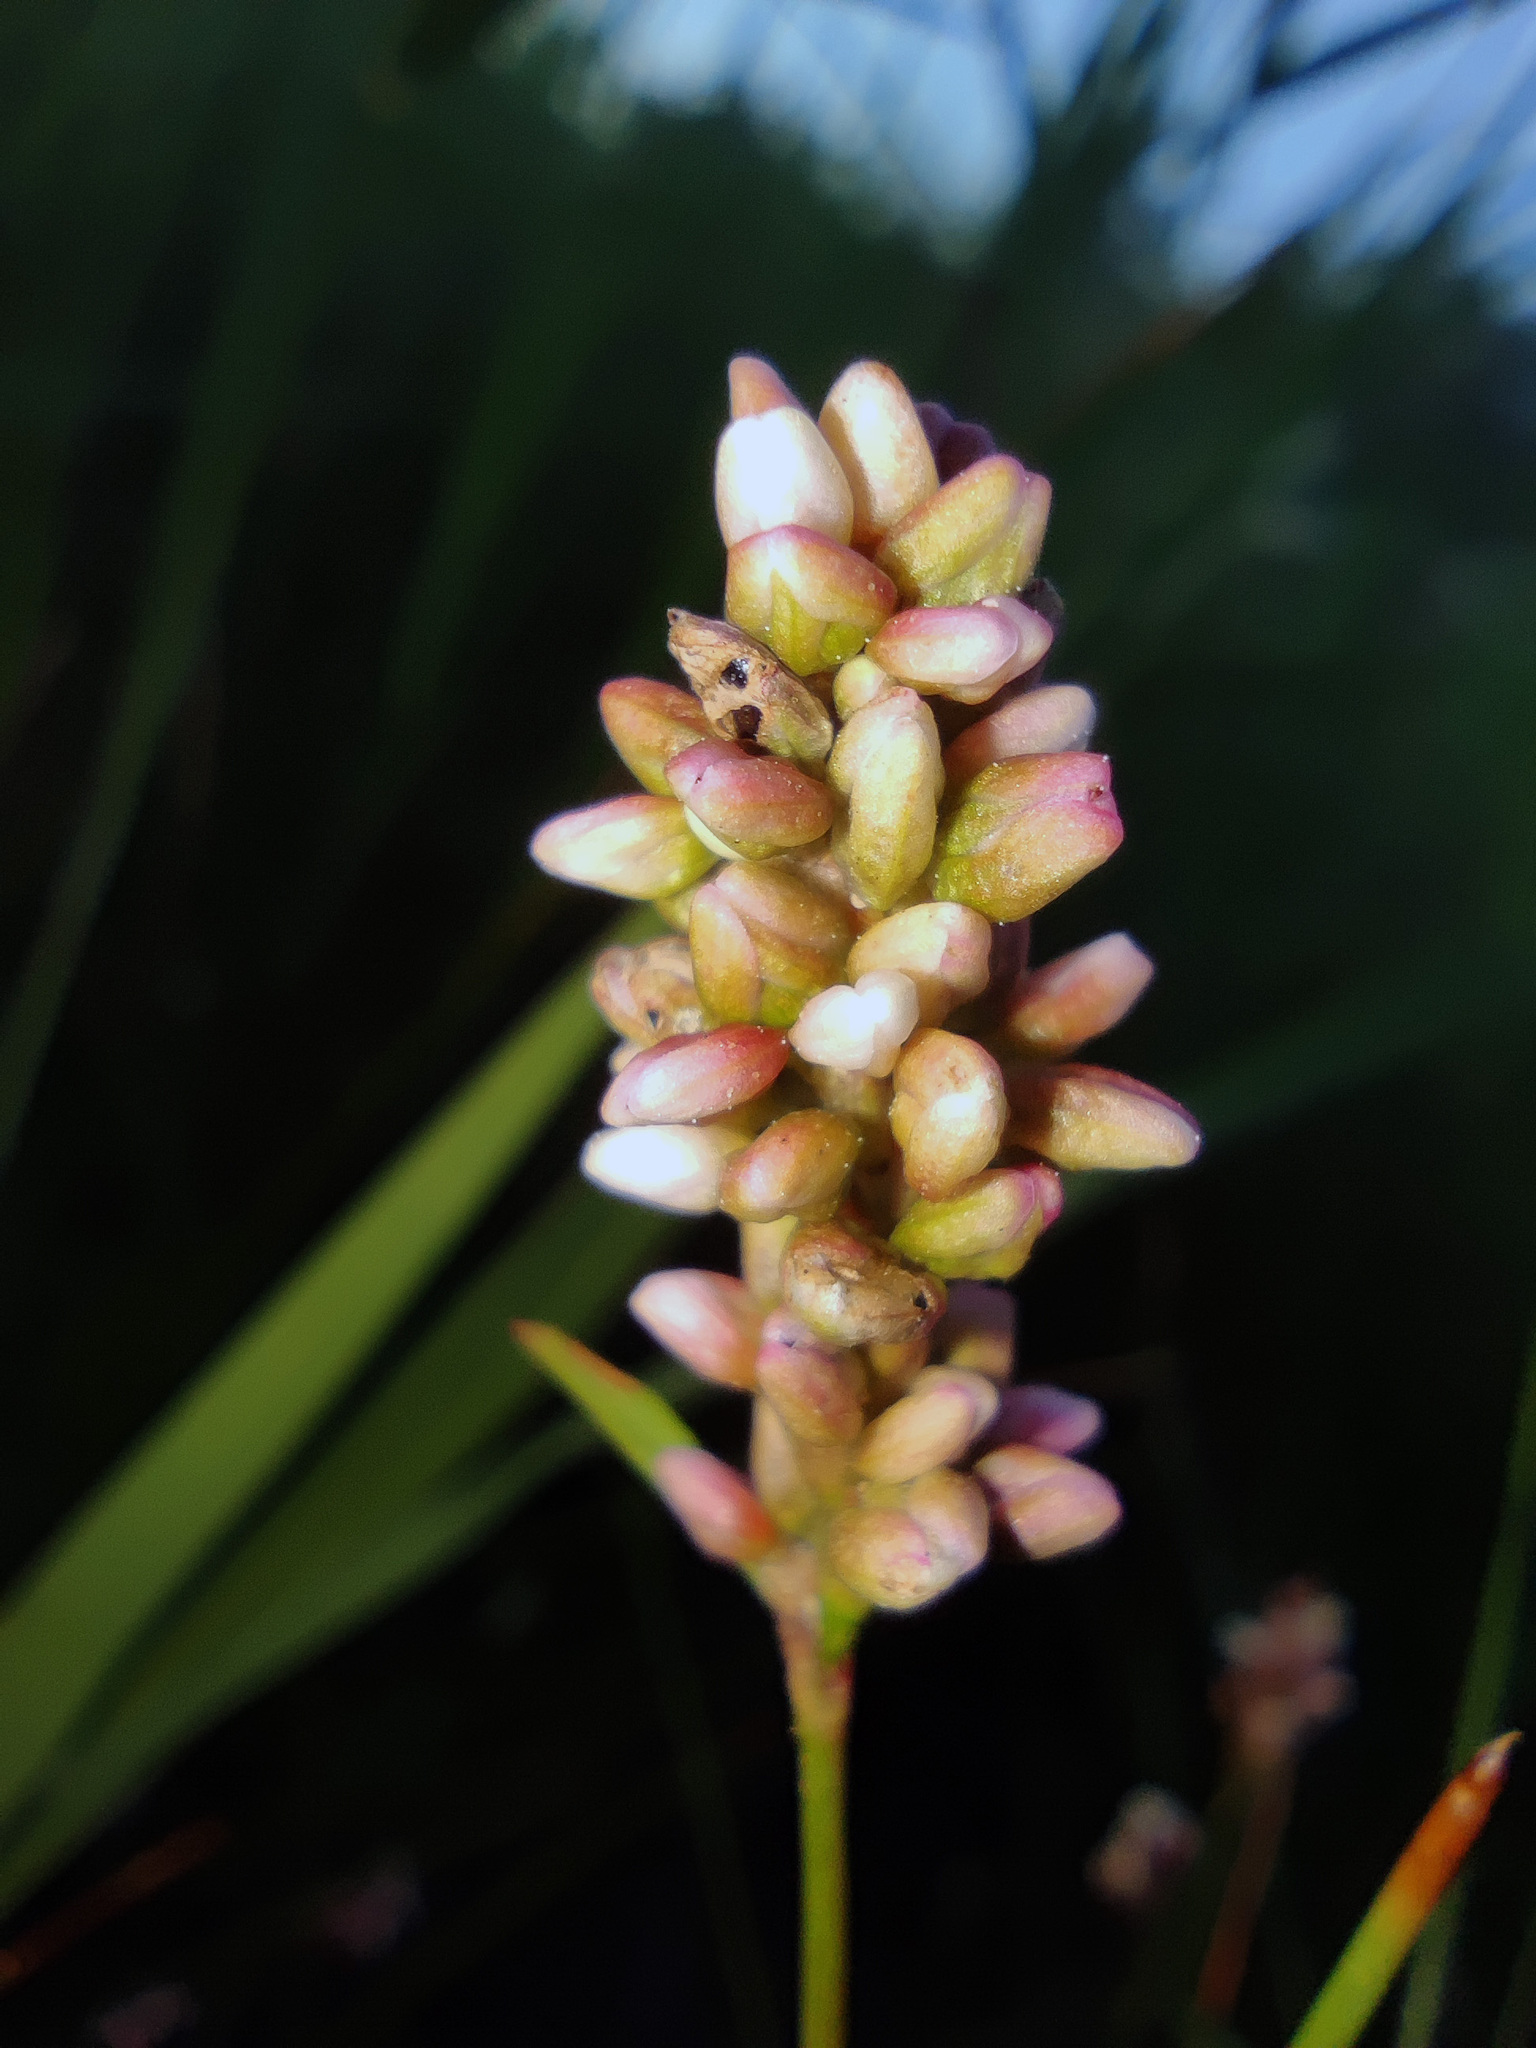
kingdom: Plantae
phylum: Tracheophyta
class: Magnoliopsida
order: Caryophyllales
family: Polygonaceae
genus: Persicaria
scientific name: Persicaria maculosa
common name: Redshank
